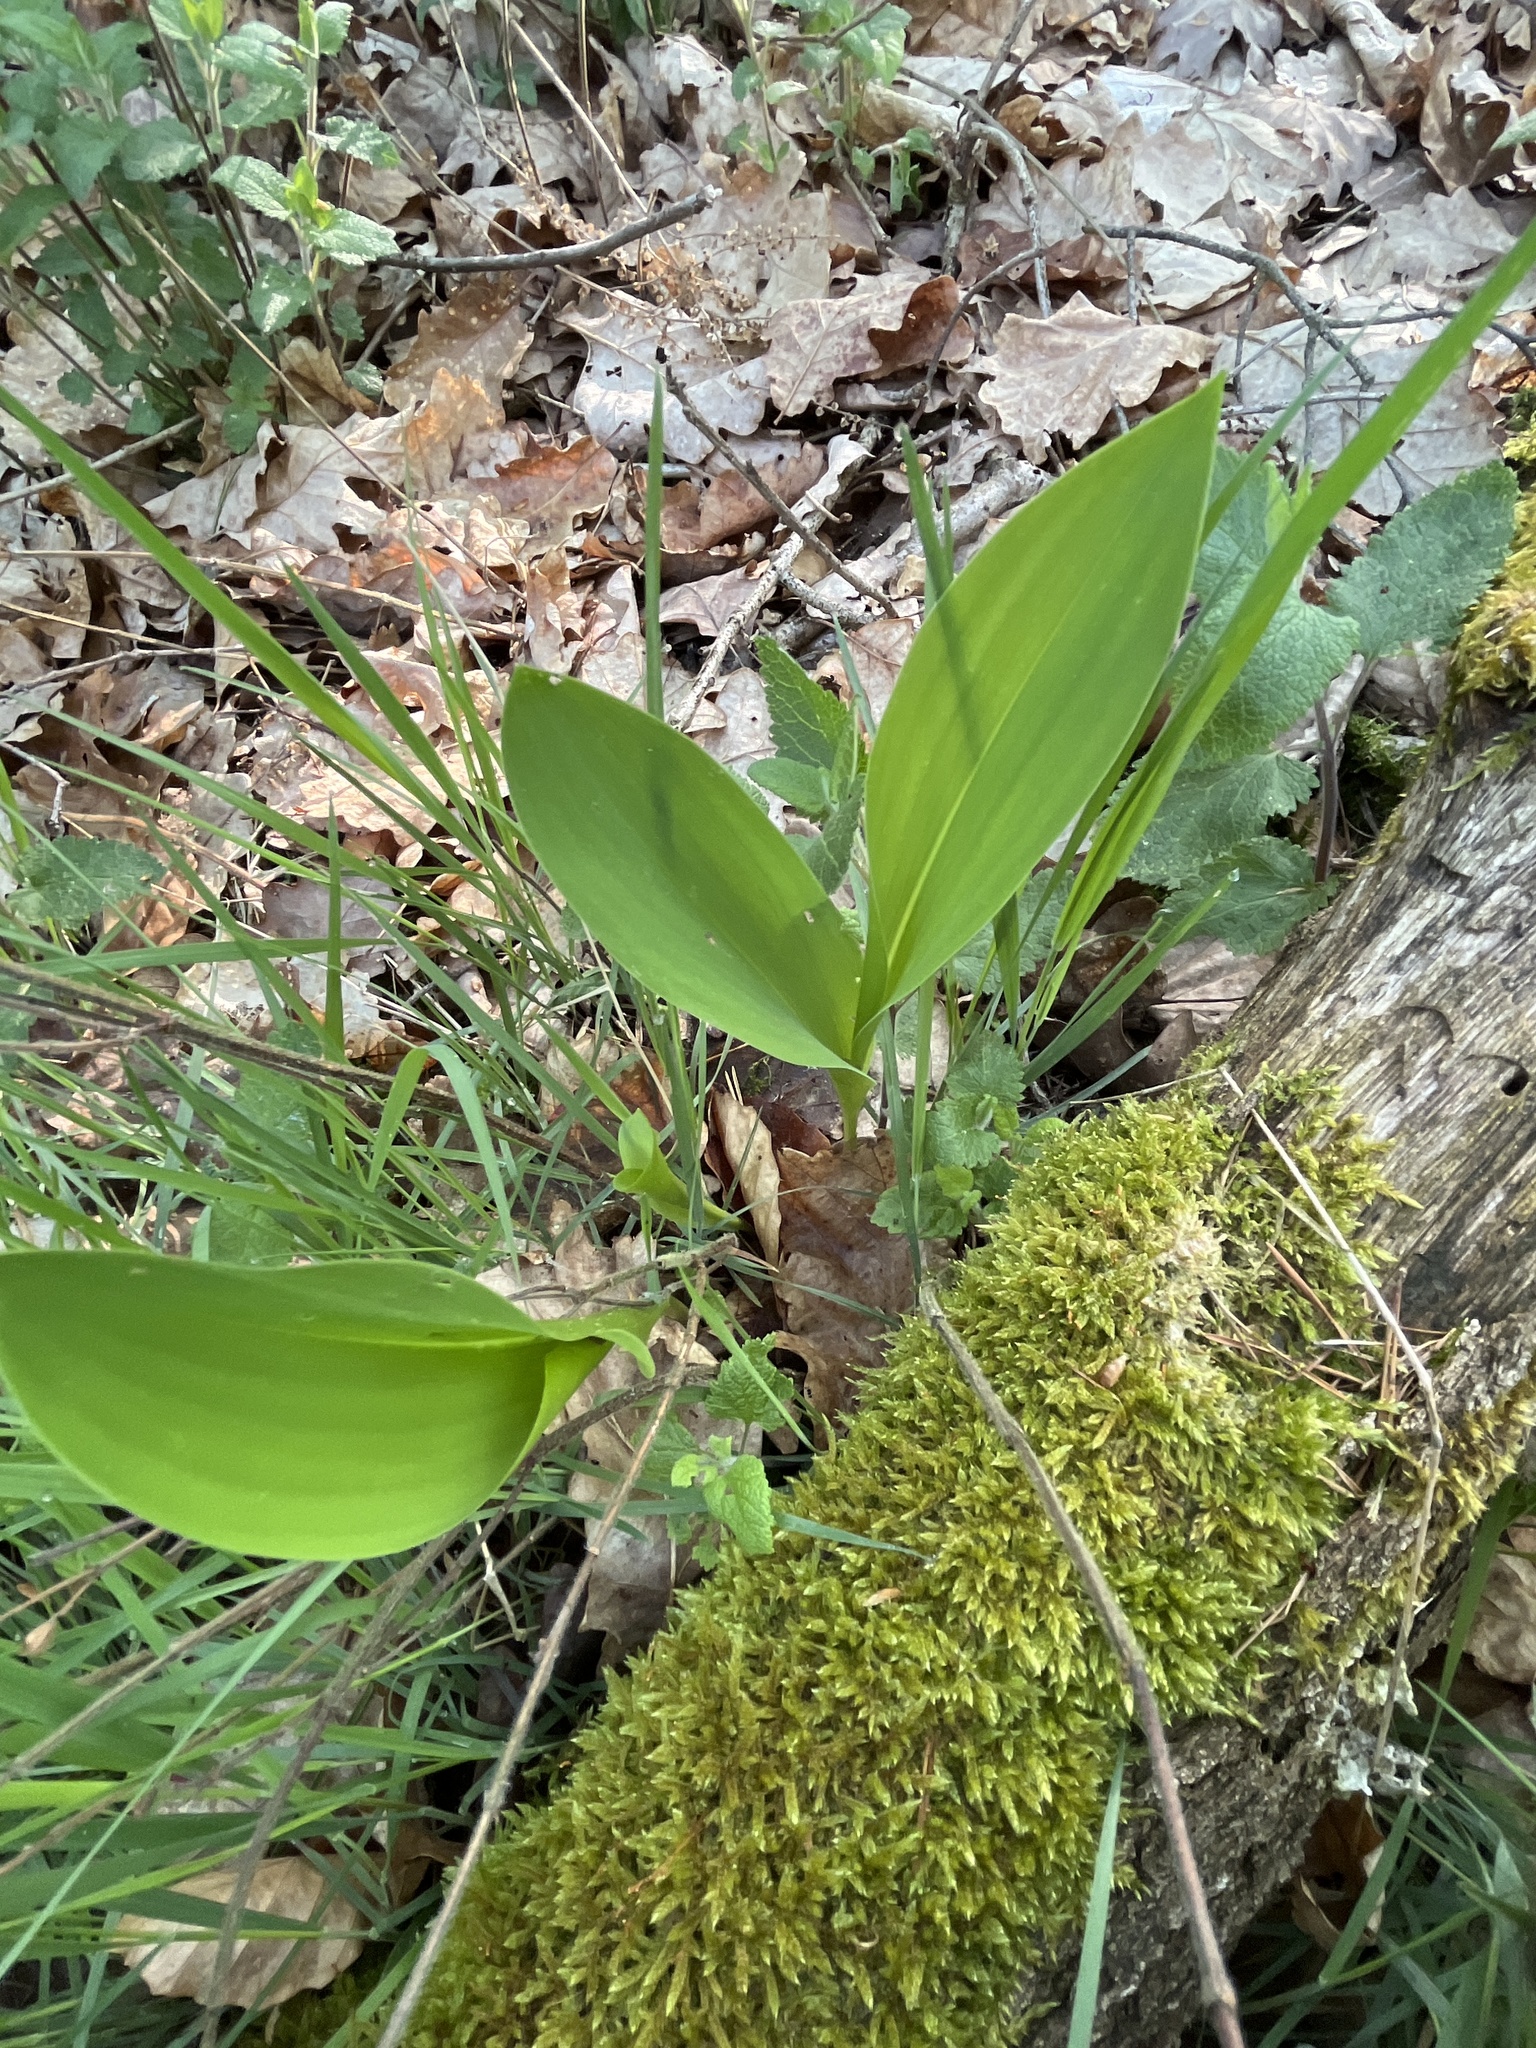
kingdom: Plantae
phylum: Tracheophyta
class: Liliopsida
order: Asparagales
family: Asparagaceae
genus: Convallaria
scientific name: Convallaria majalis
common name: Lily-of-the-valley
